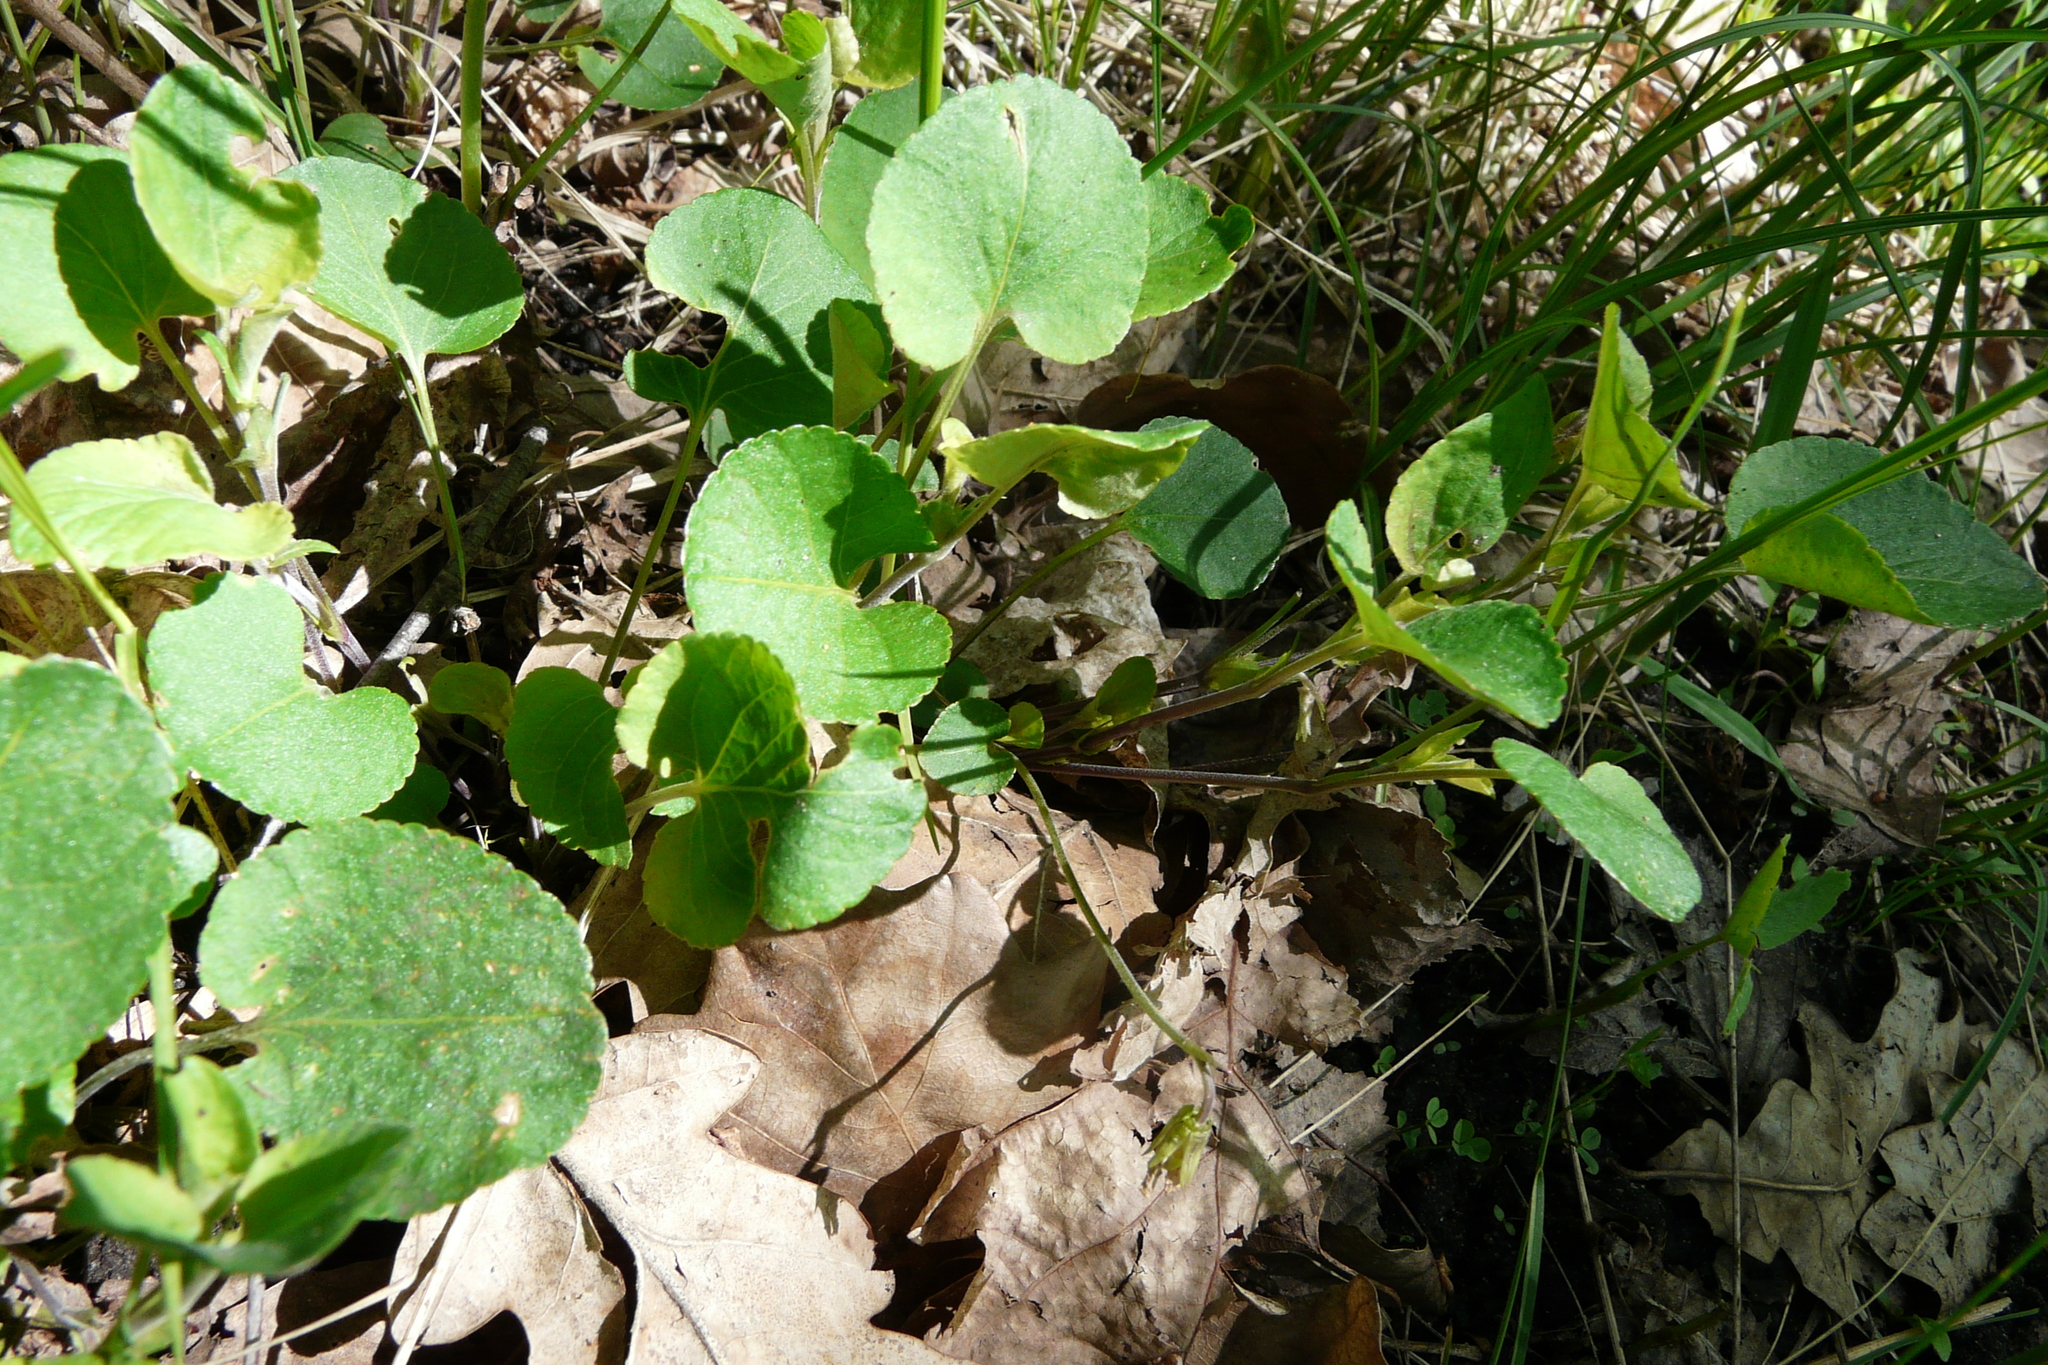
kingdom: Plantae
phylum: Tracheophyta
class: Magnoliopsida
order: Malpighiales
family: Violaceae
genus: Viola
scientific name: Viola rupestris
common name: Teesdale violet
